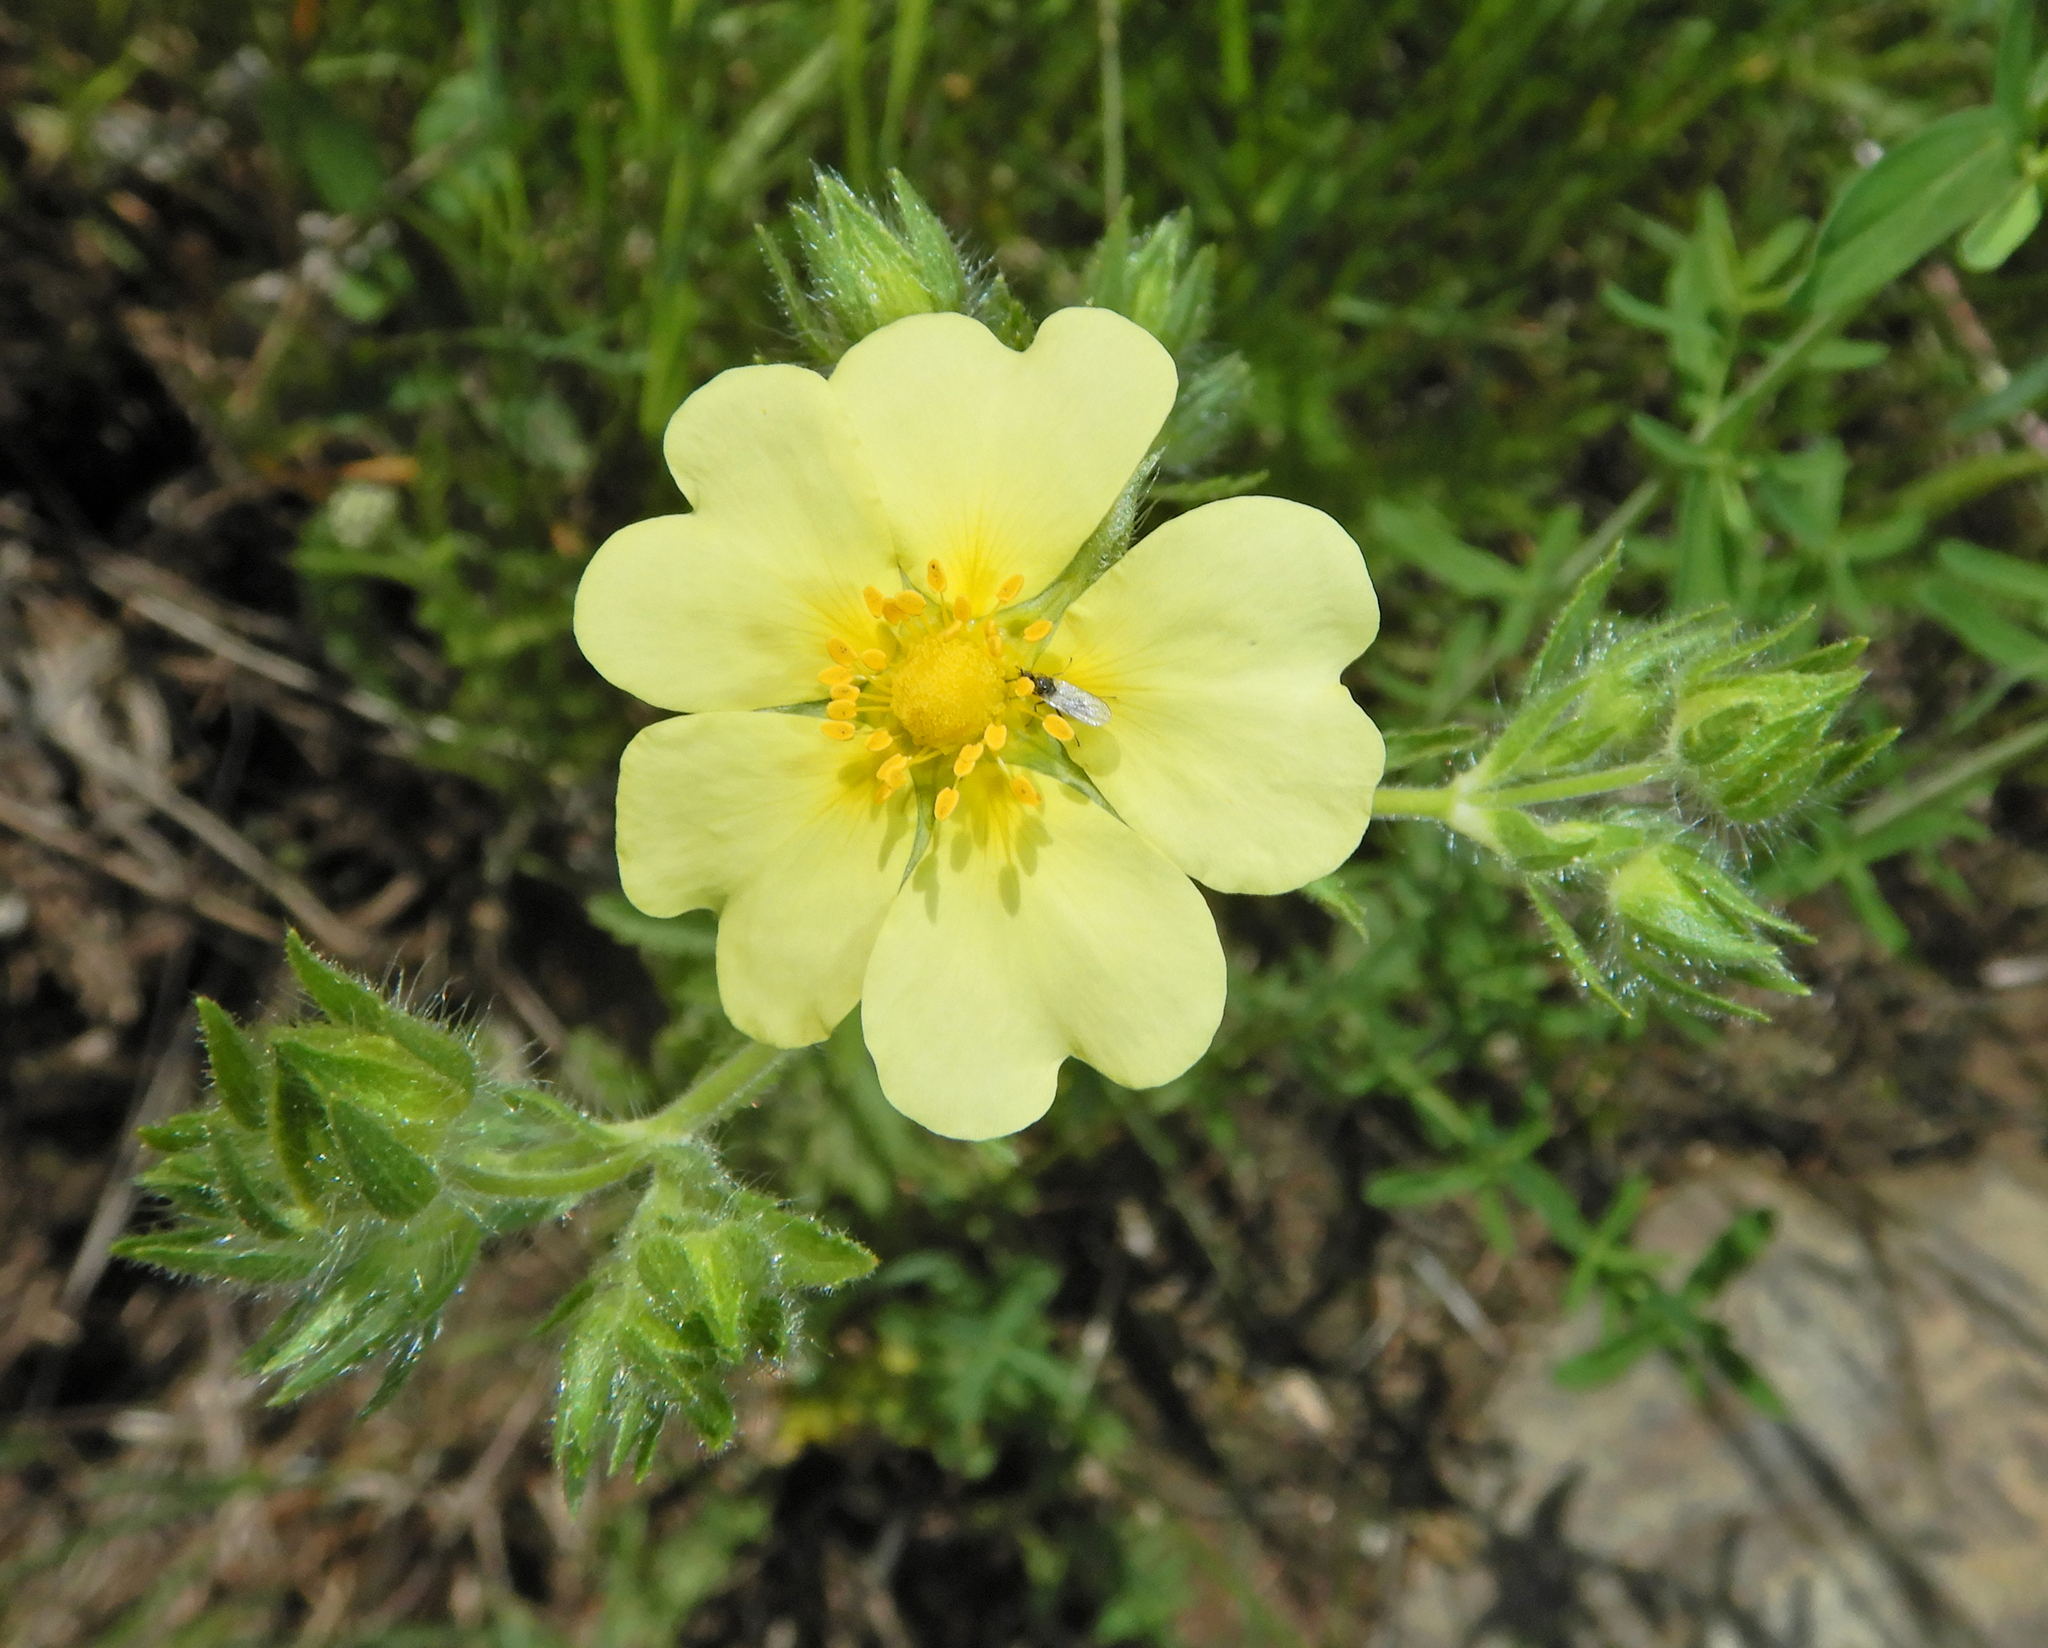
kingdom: Plantae
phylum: Tracheophyta
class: Magnoliopsida
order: Rosales
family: Rosaceae
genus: Potentilla
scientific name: Potentilla recta
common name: Sulphur cinquefoil
